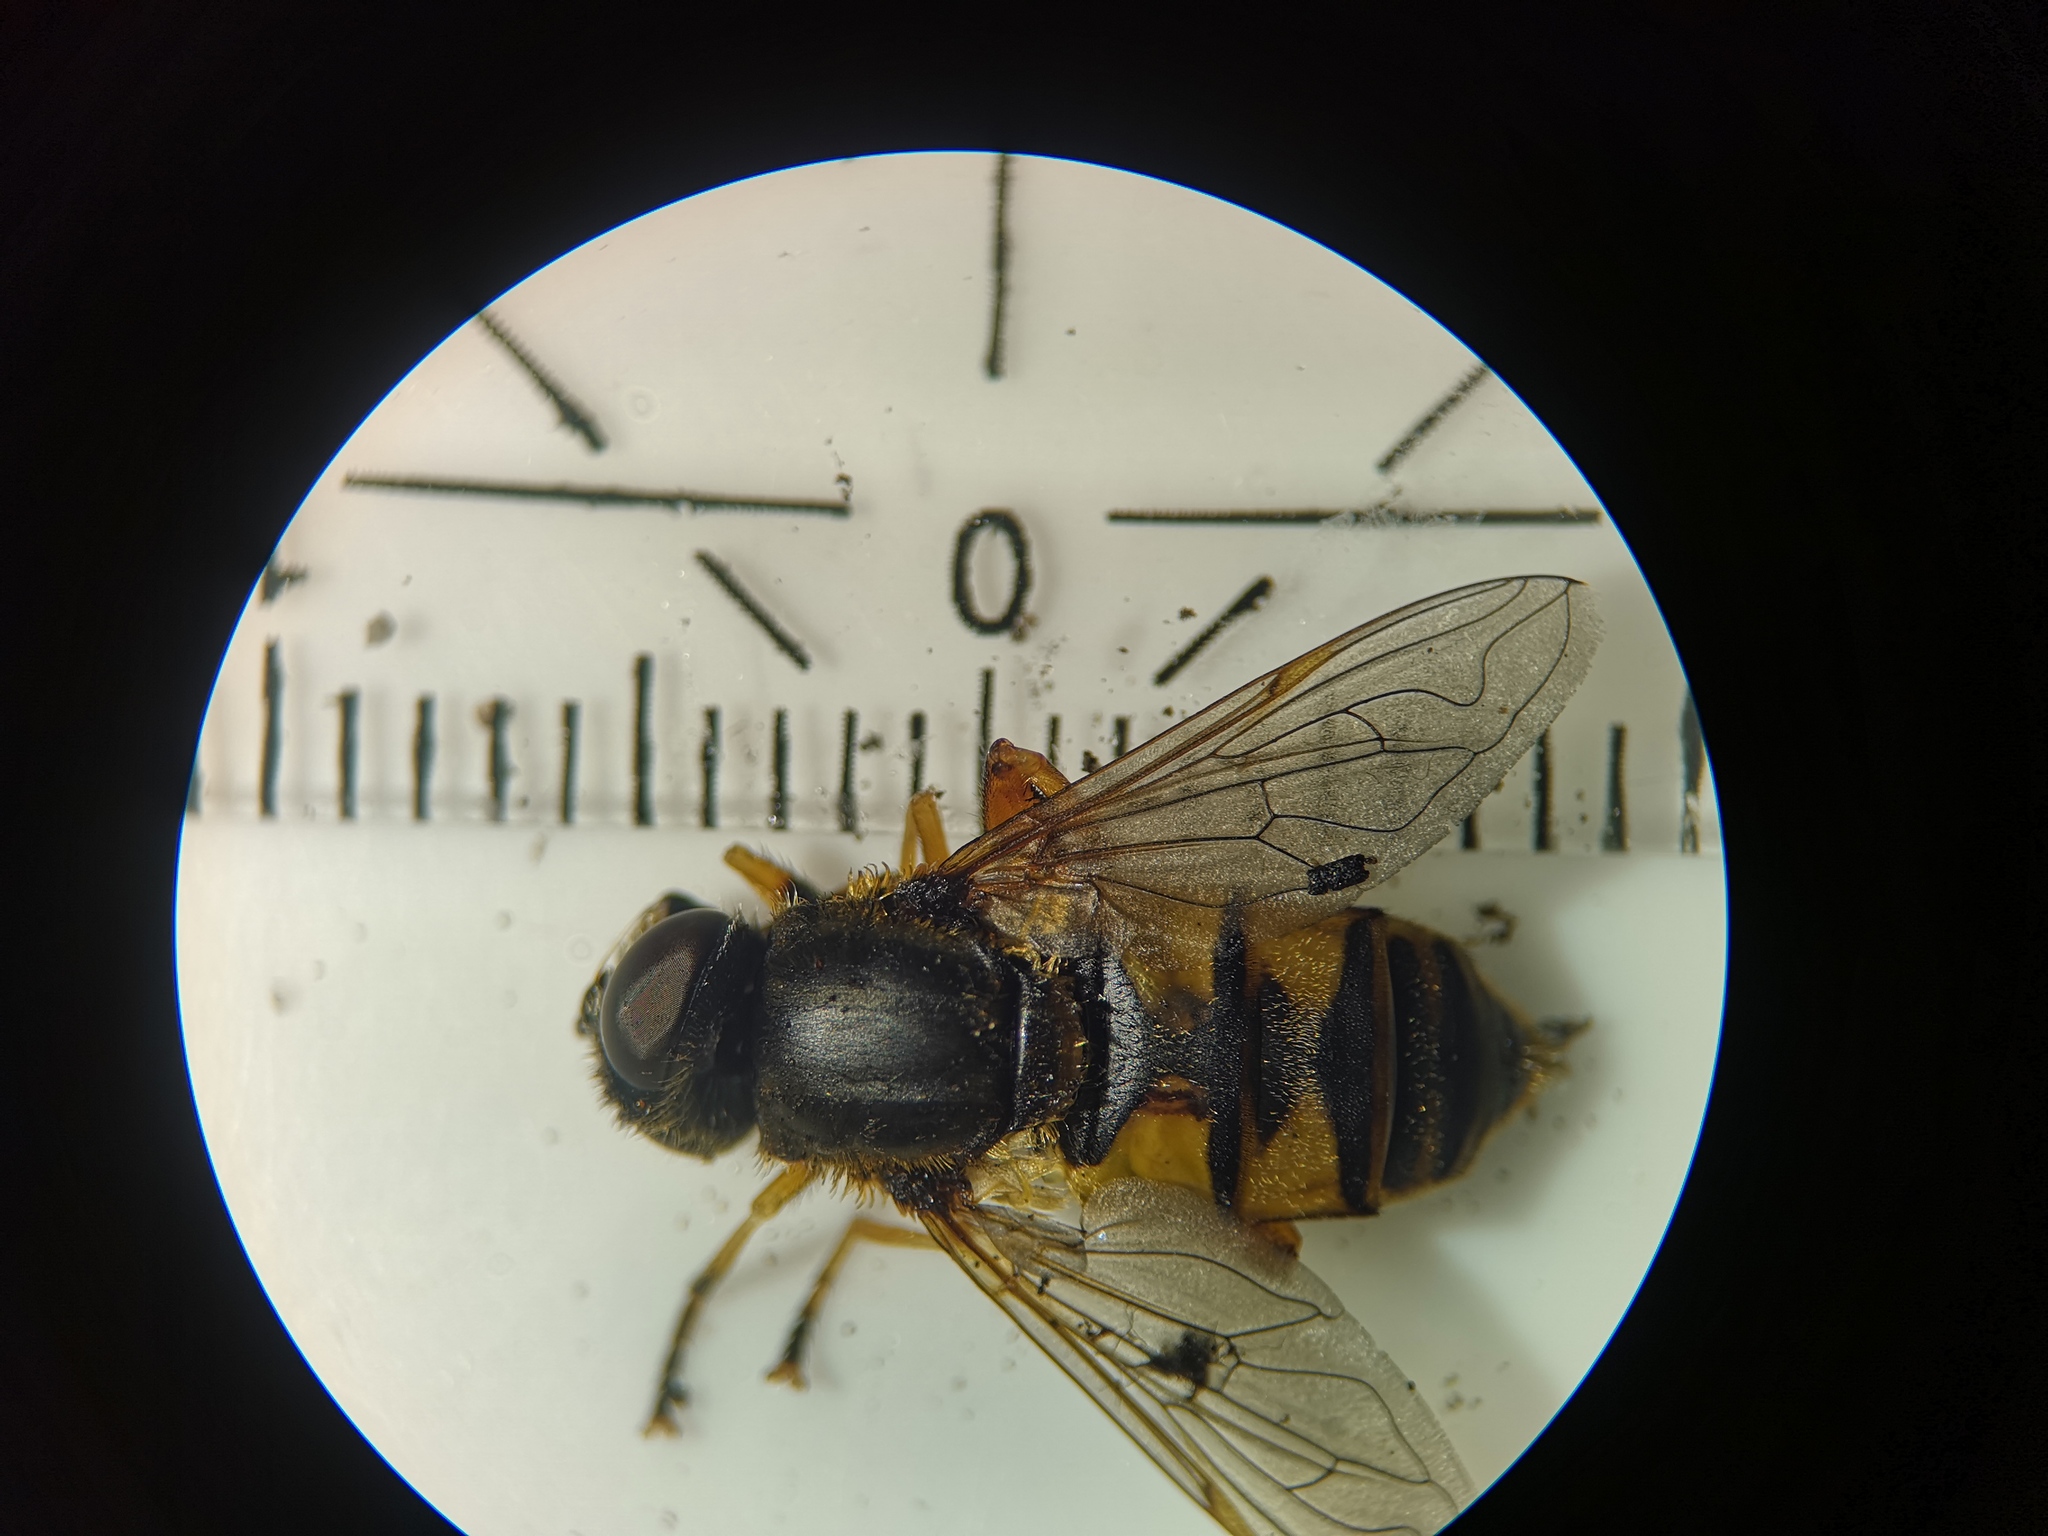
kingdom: Animalia
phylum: Arthropoda
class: Insecta
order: Diptera
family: Syrphidae
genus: Helophilus
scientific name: Helophilus pendulus
